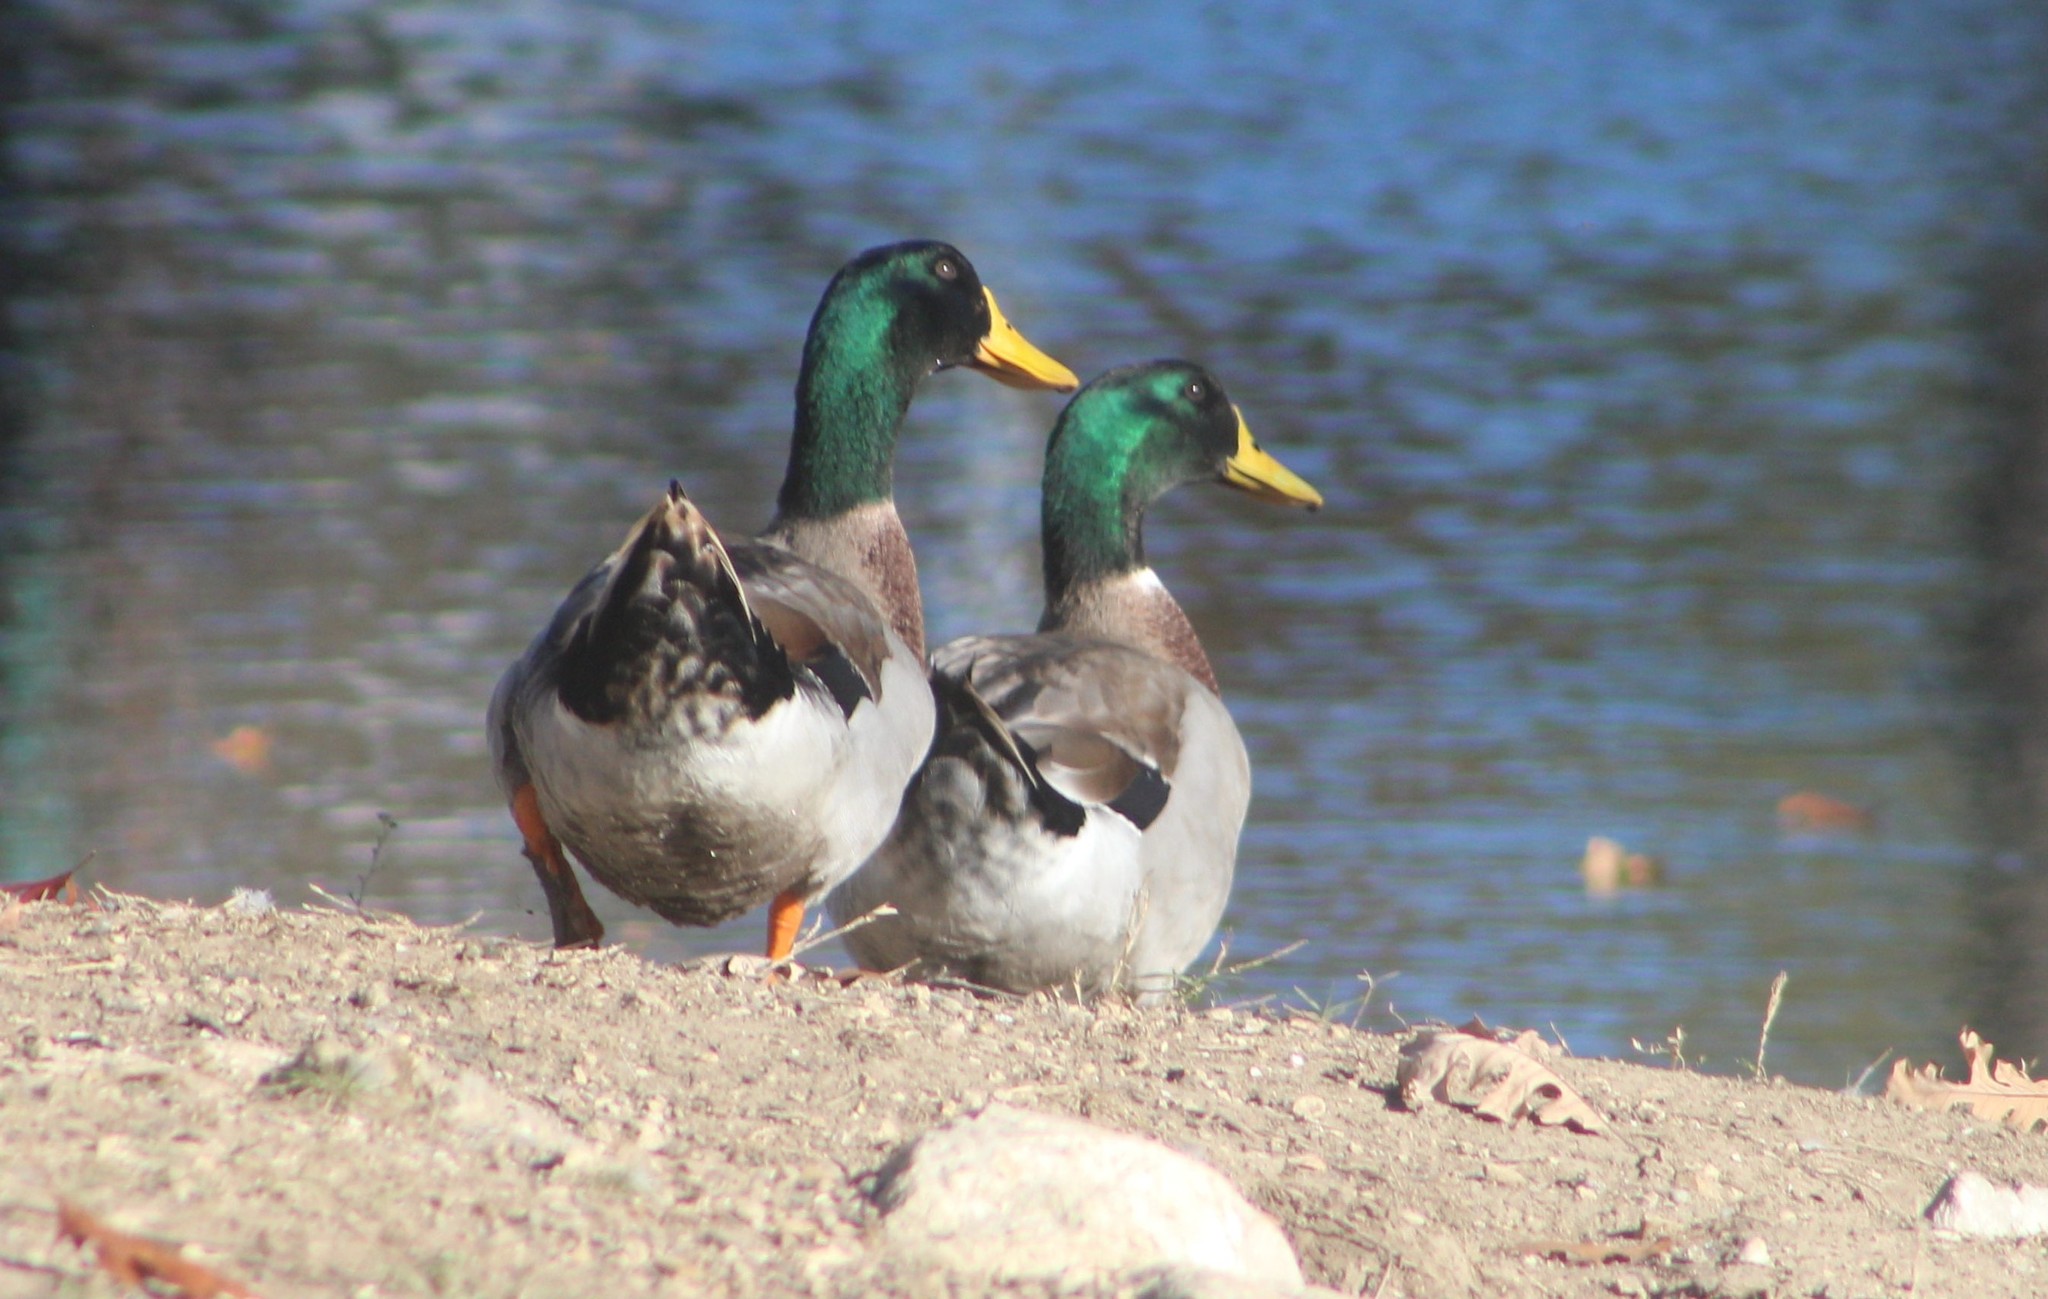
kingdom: Animalia
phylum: Chordata
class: Aves
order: Anseriformes
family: Anatidae
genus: Anas
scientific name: Anas platyrhynchos
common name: Mallard
